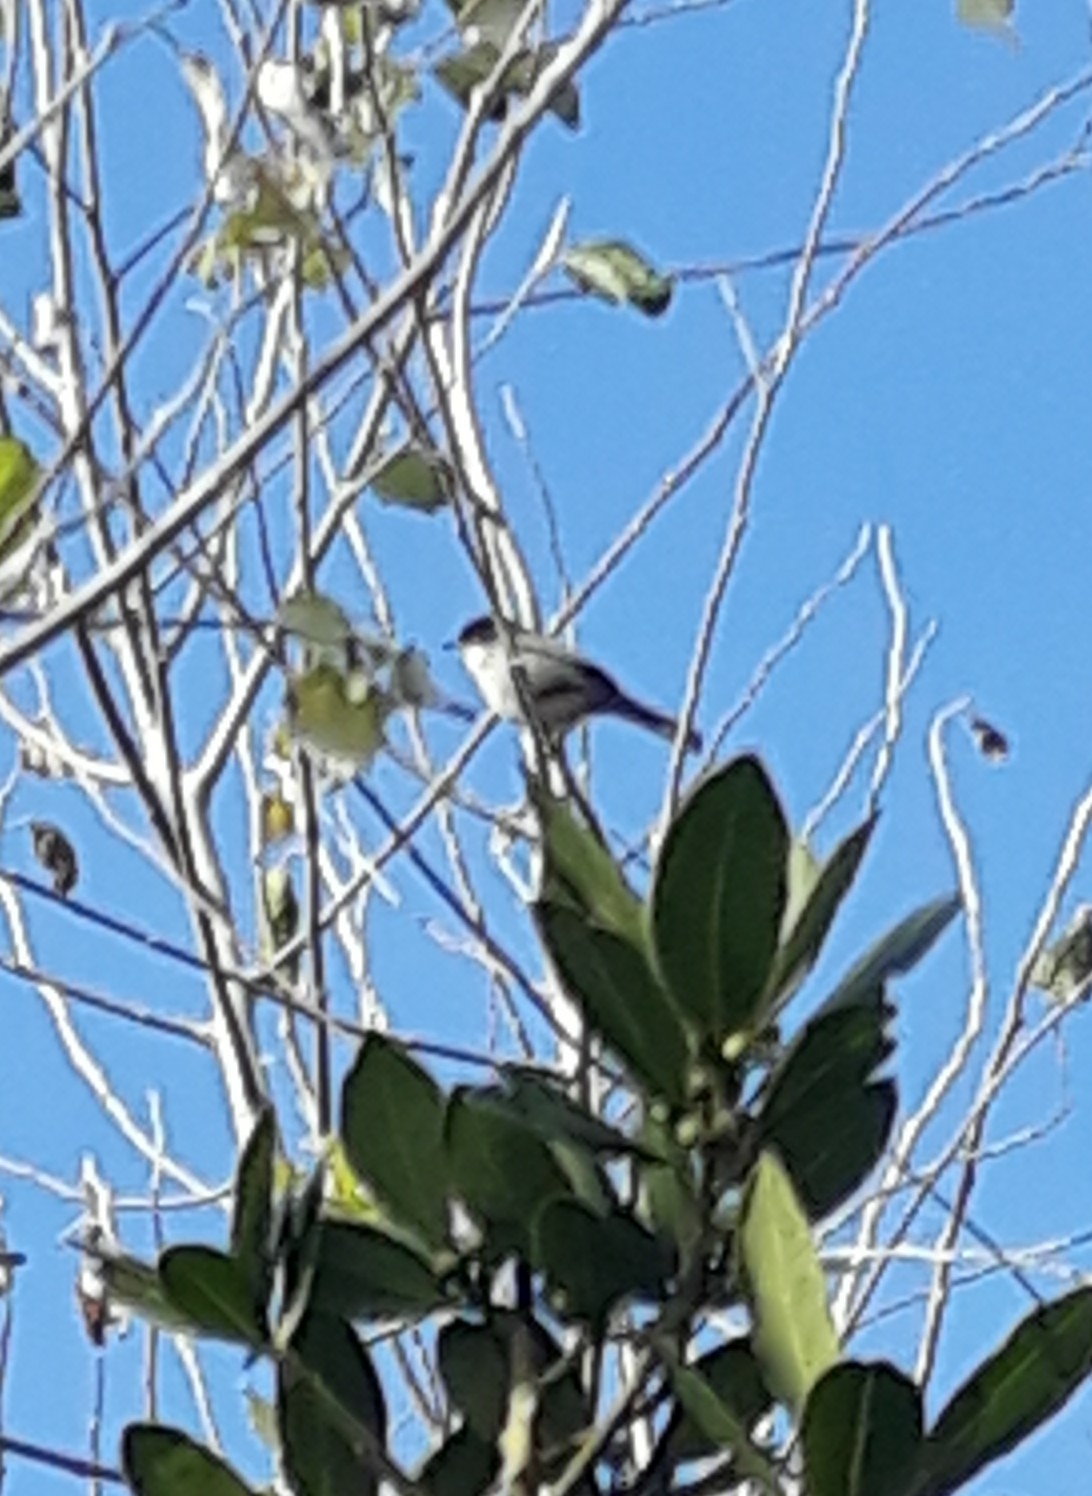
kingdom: Animalia
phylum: Chordata
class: Aves
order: Passeriformes
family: Sylviidae
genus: Curruca
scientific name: Curruca melanocephala
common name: Sardinian warbler
